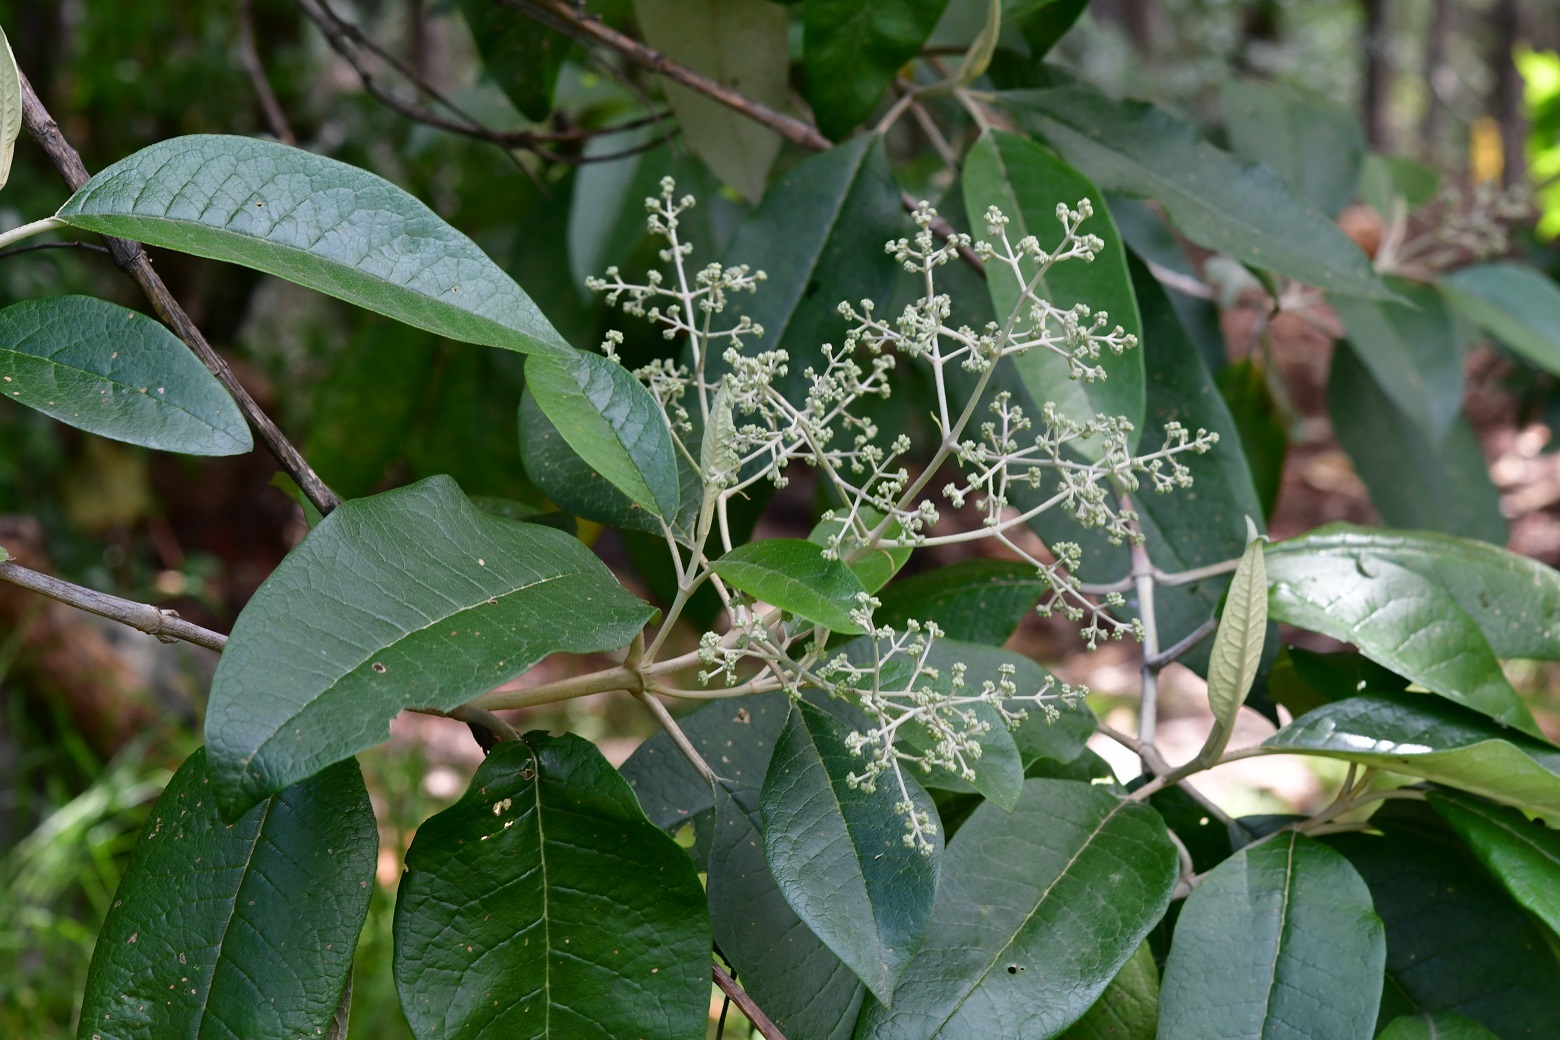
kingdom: Plantae
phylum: Tracheophyta
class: Magnoliopsida
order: Lamiales
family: Scrophulariaceae
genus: Buddleja
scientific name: Buddleja cordata
